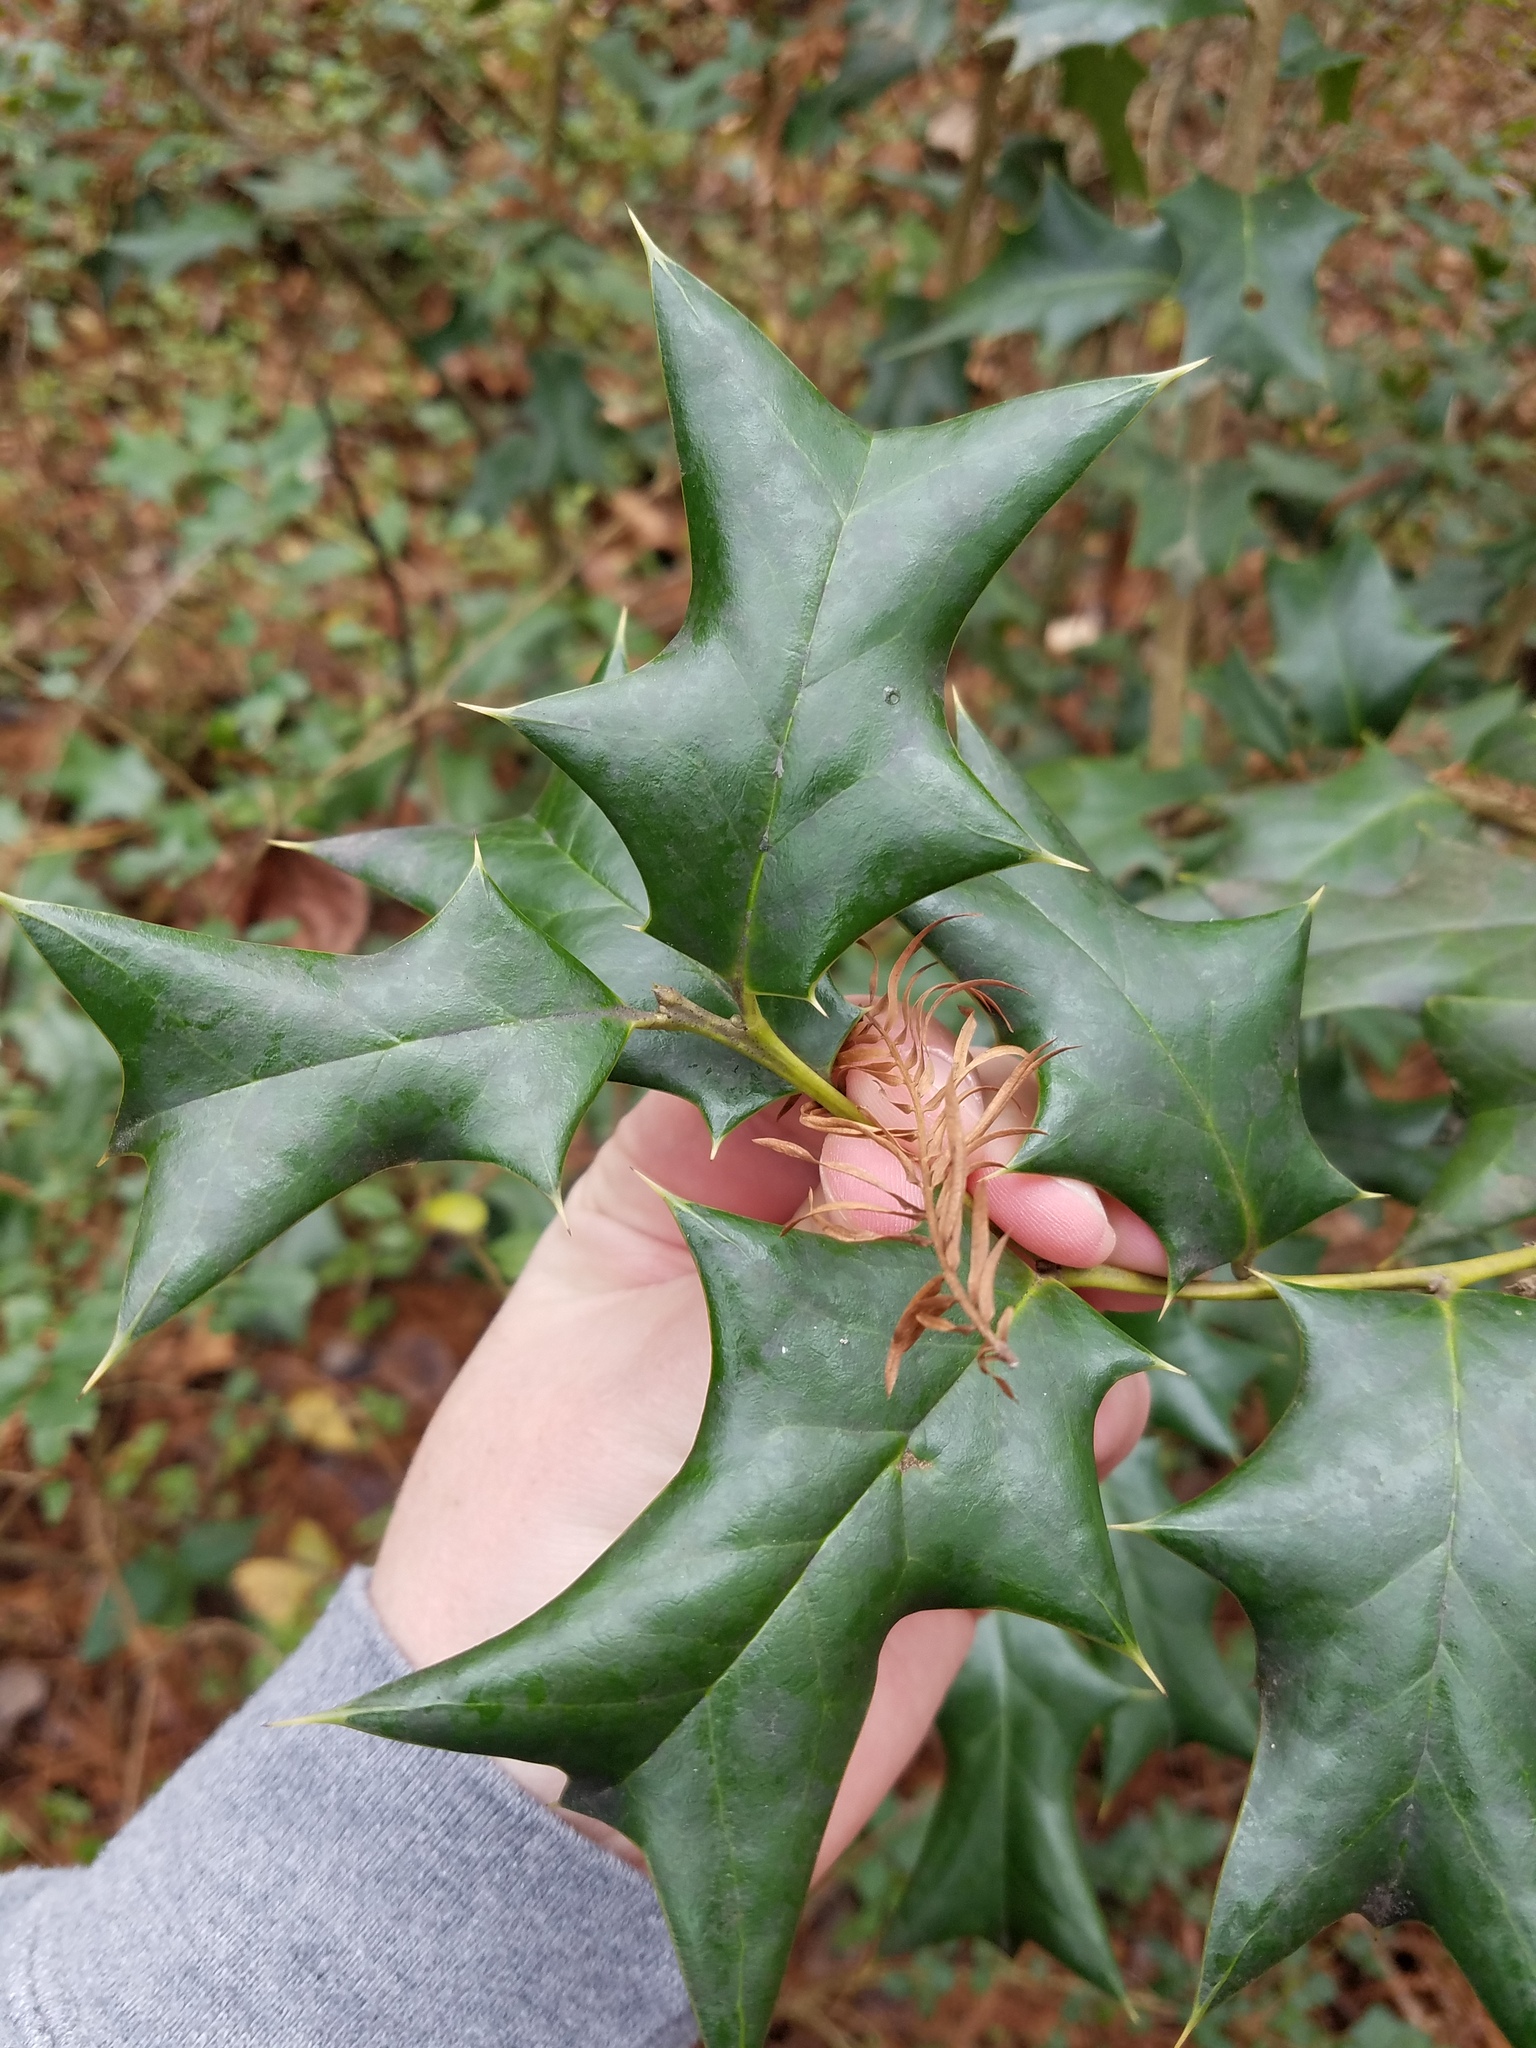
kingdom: Plantae
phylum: Tracheophyta
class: Magnoliopsida
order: Aquifoliales
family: Aquifoliaceae
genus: Ilex
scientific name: Ilex cornuta
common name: Chinese holly
